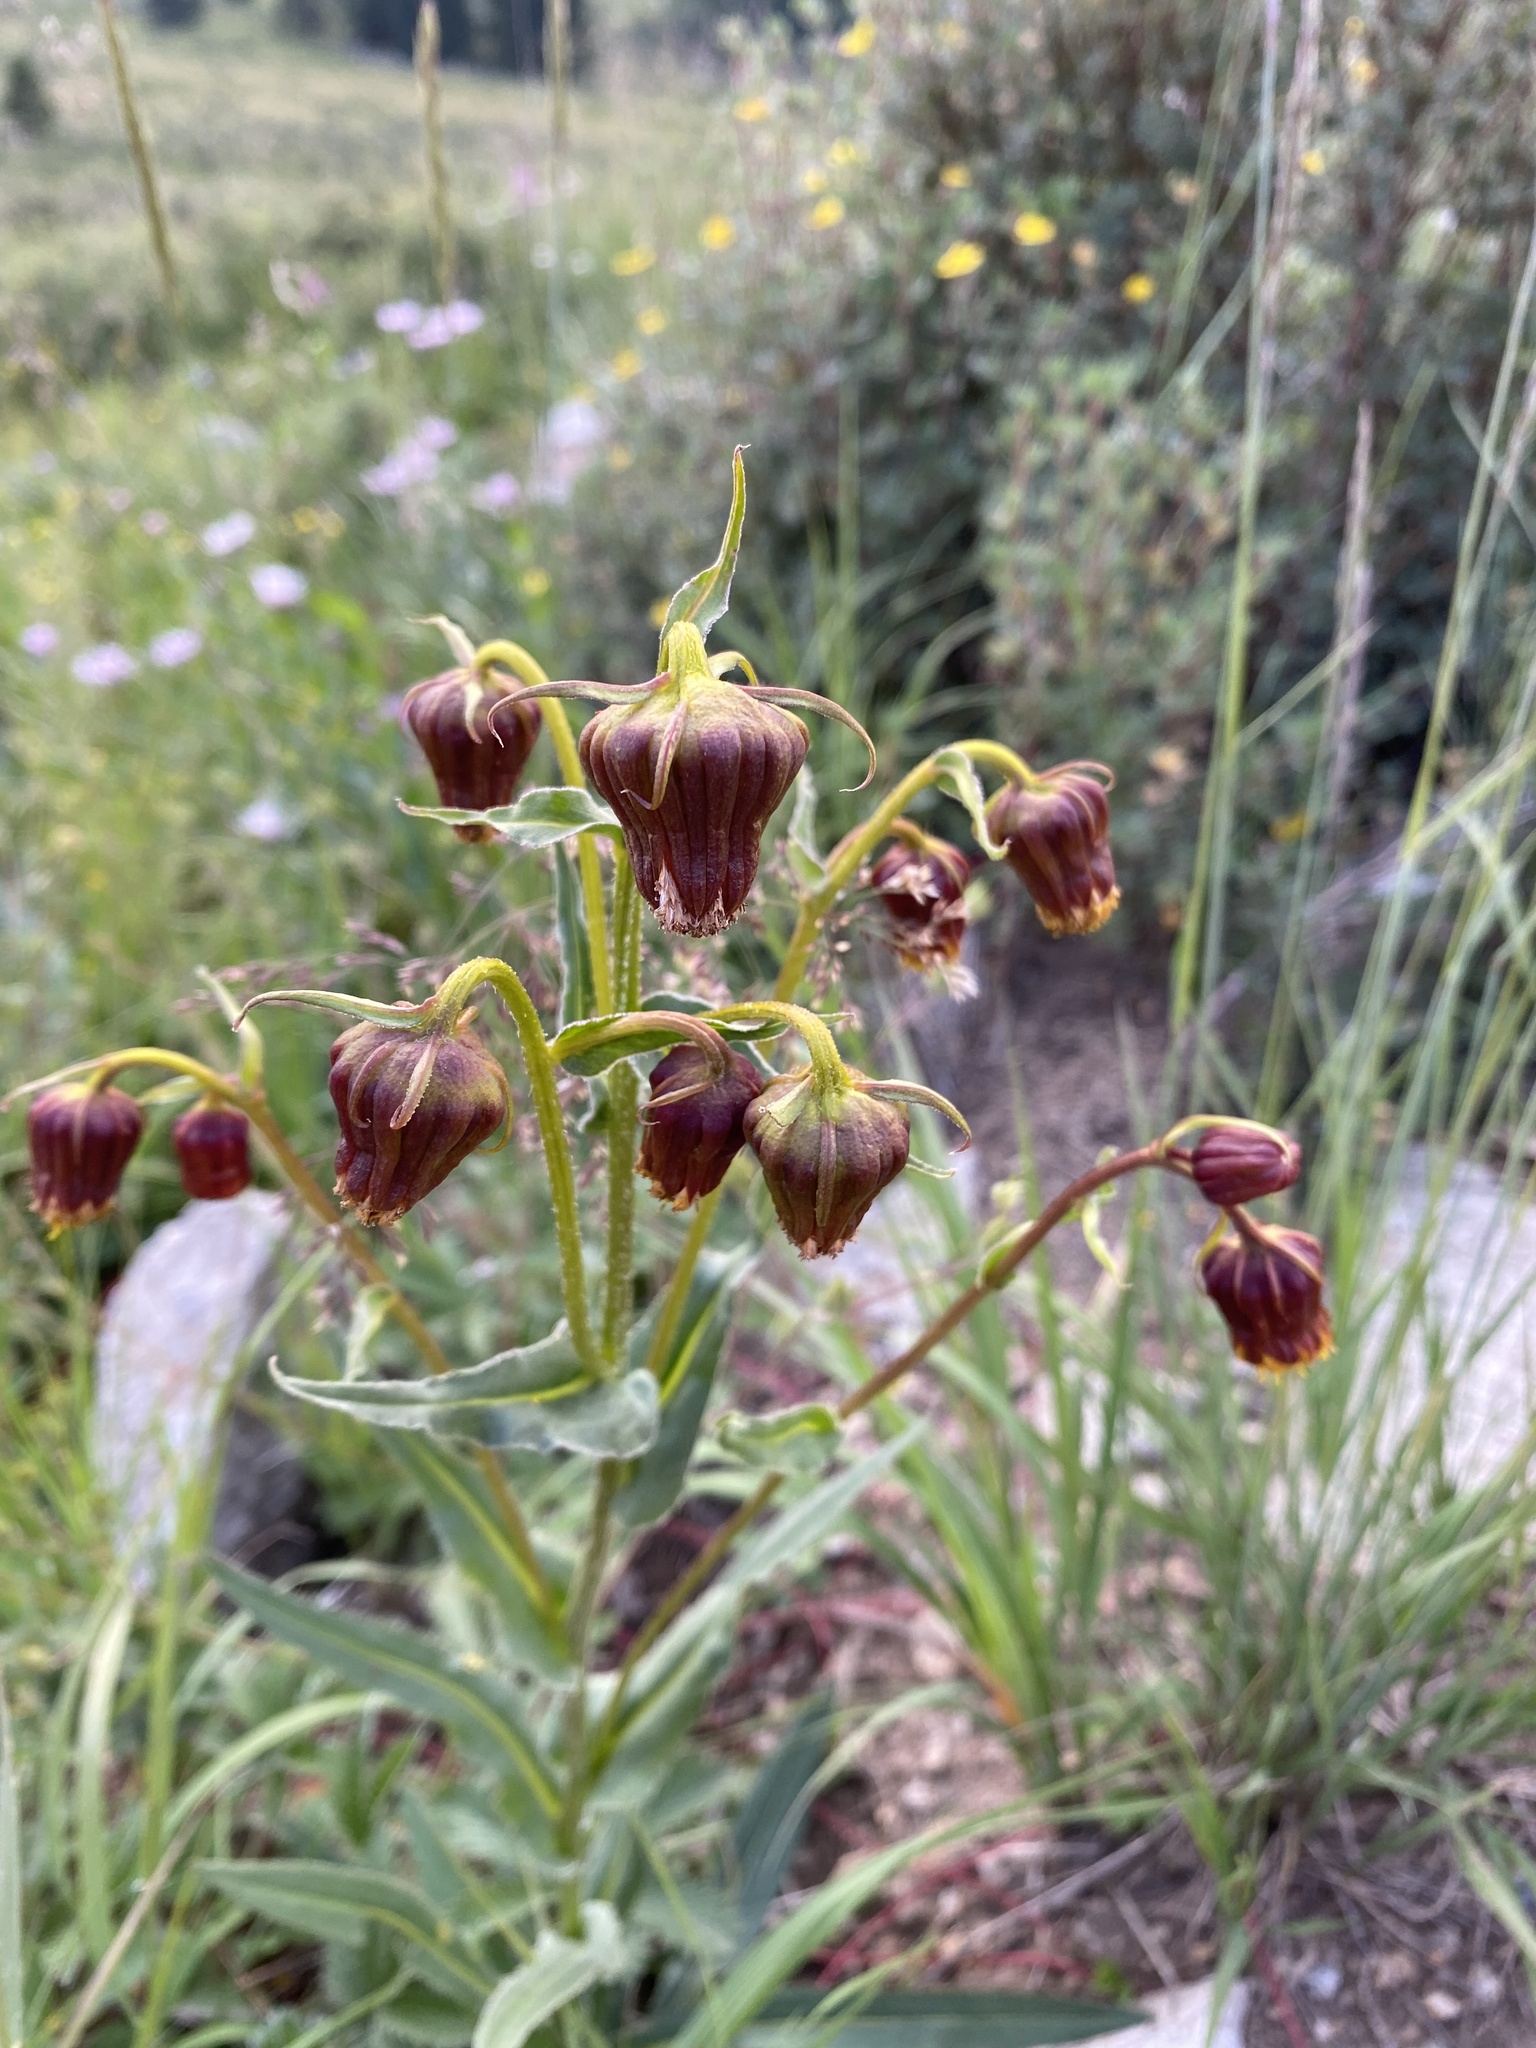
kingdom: Plantae
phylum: Tracheophyta
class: Magnoliopsida
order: Asterales
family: Asteraceae
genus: Senecio
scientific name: Senecio bigelovii
